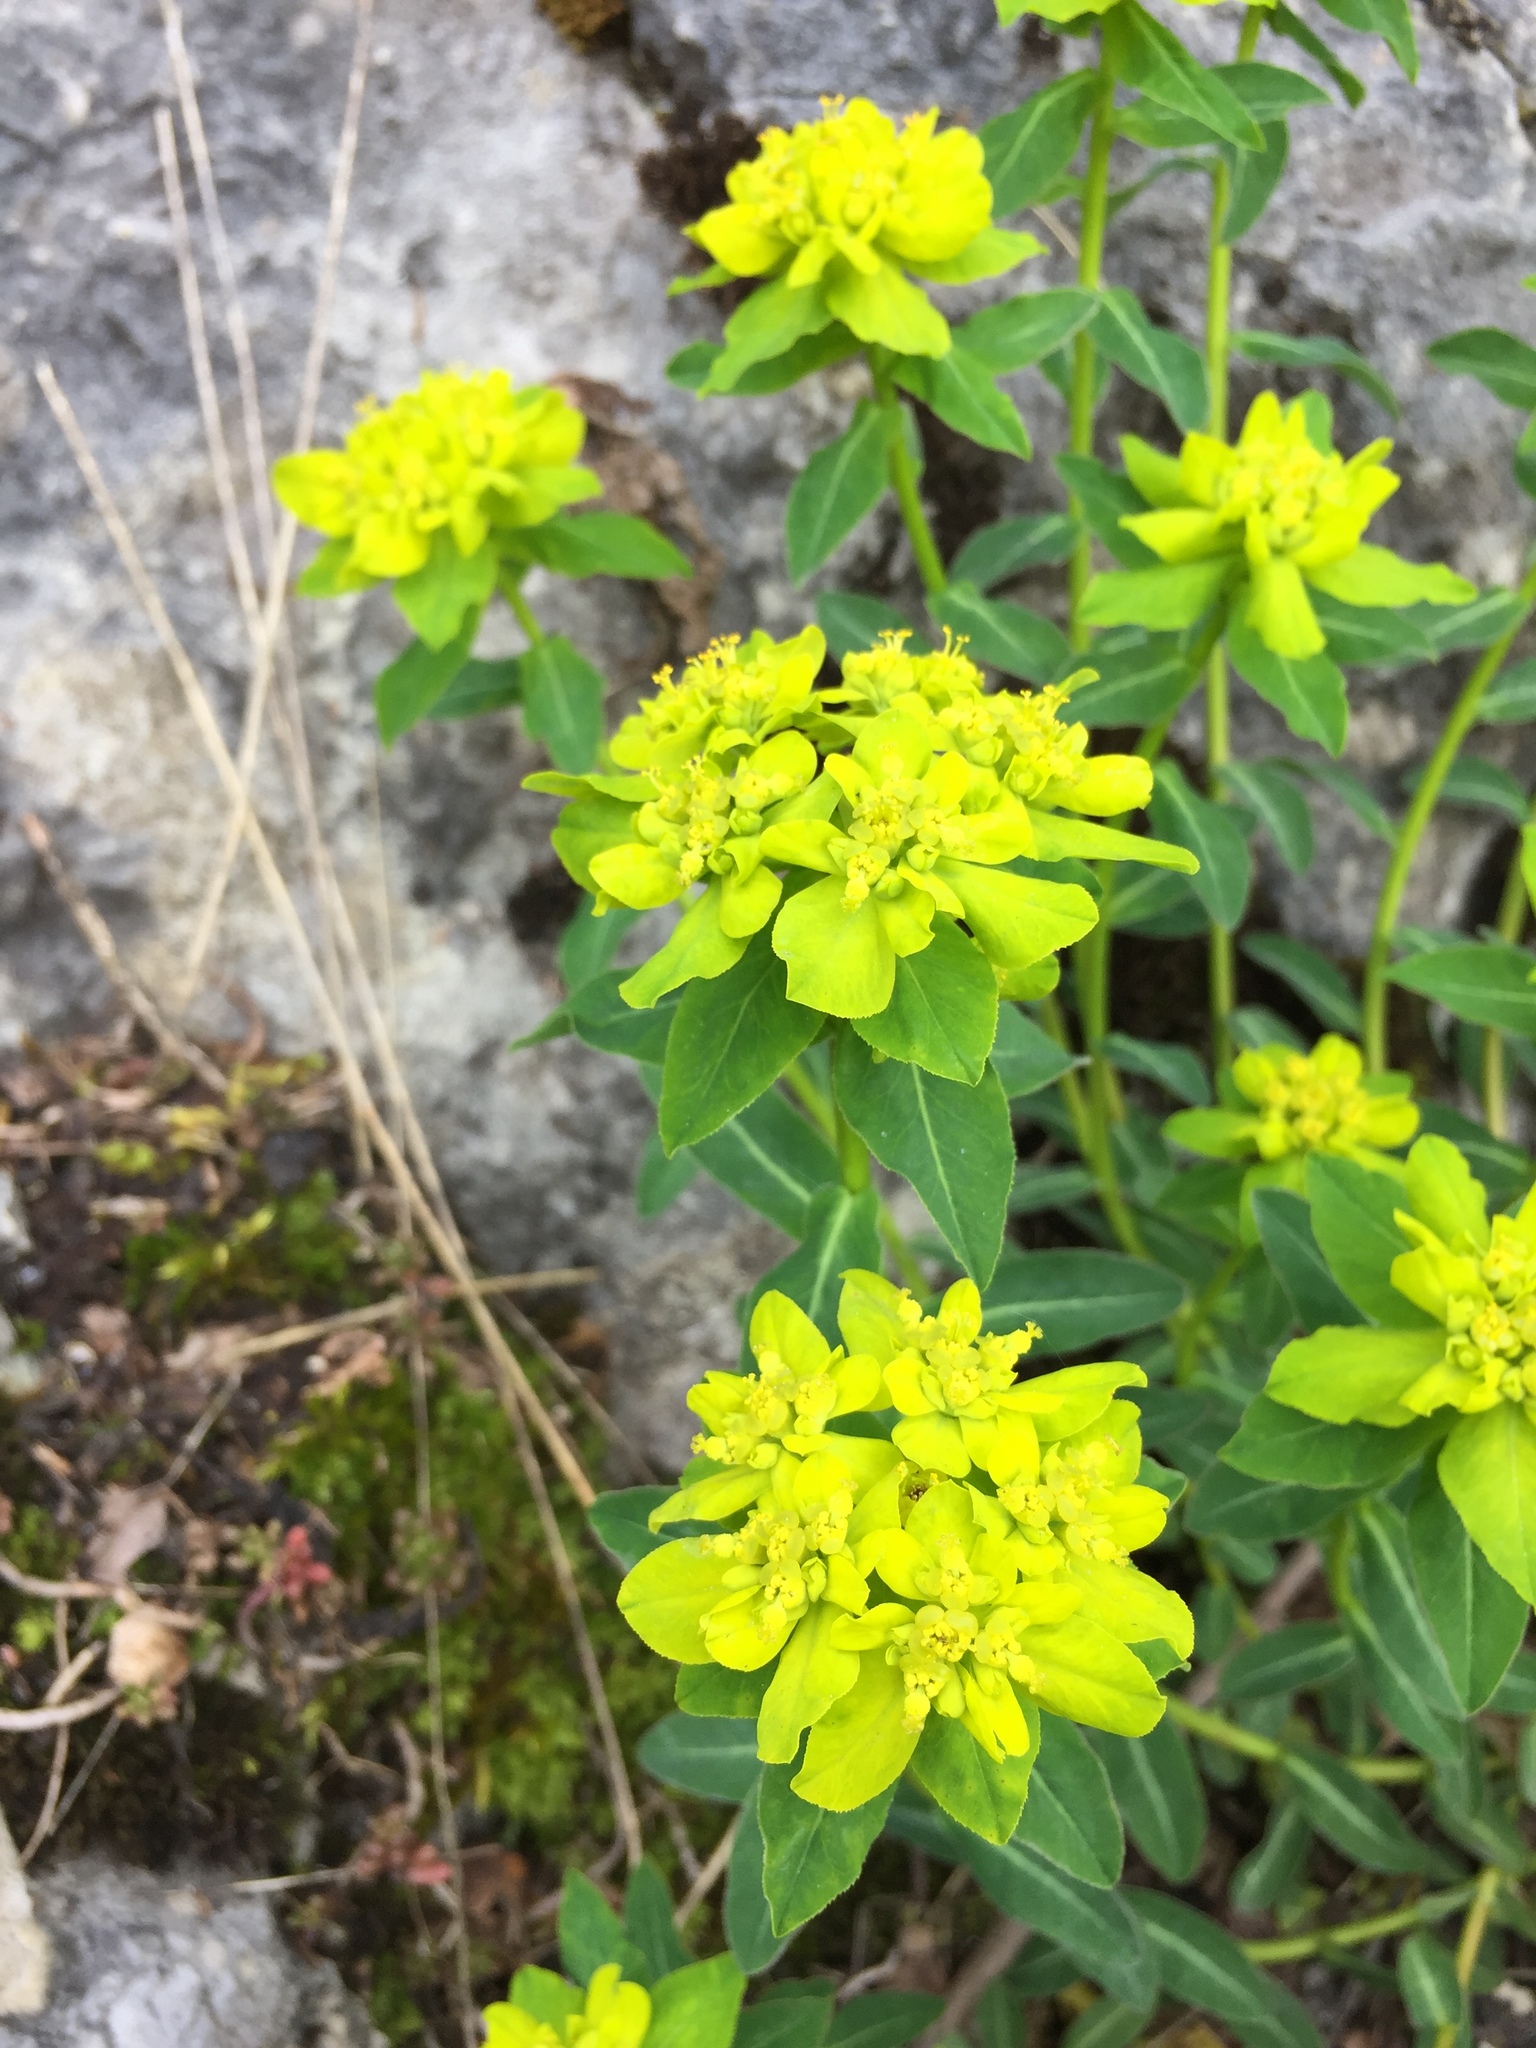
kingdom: Plantae
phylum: Tracheophyta
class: Magnoliopsida
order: Malpighiales
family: Euphorbiaceae
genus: Euphorbia
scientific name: Euphorbia verrucosa
